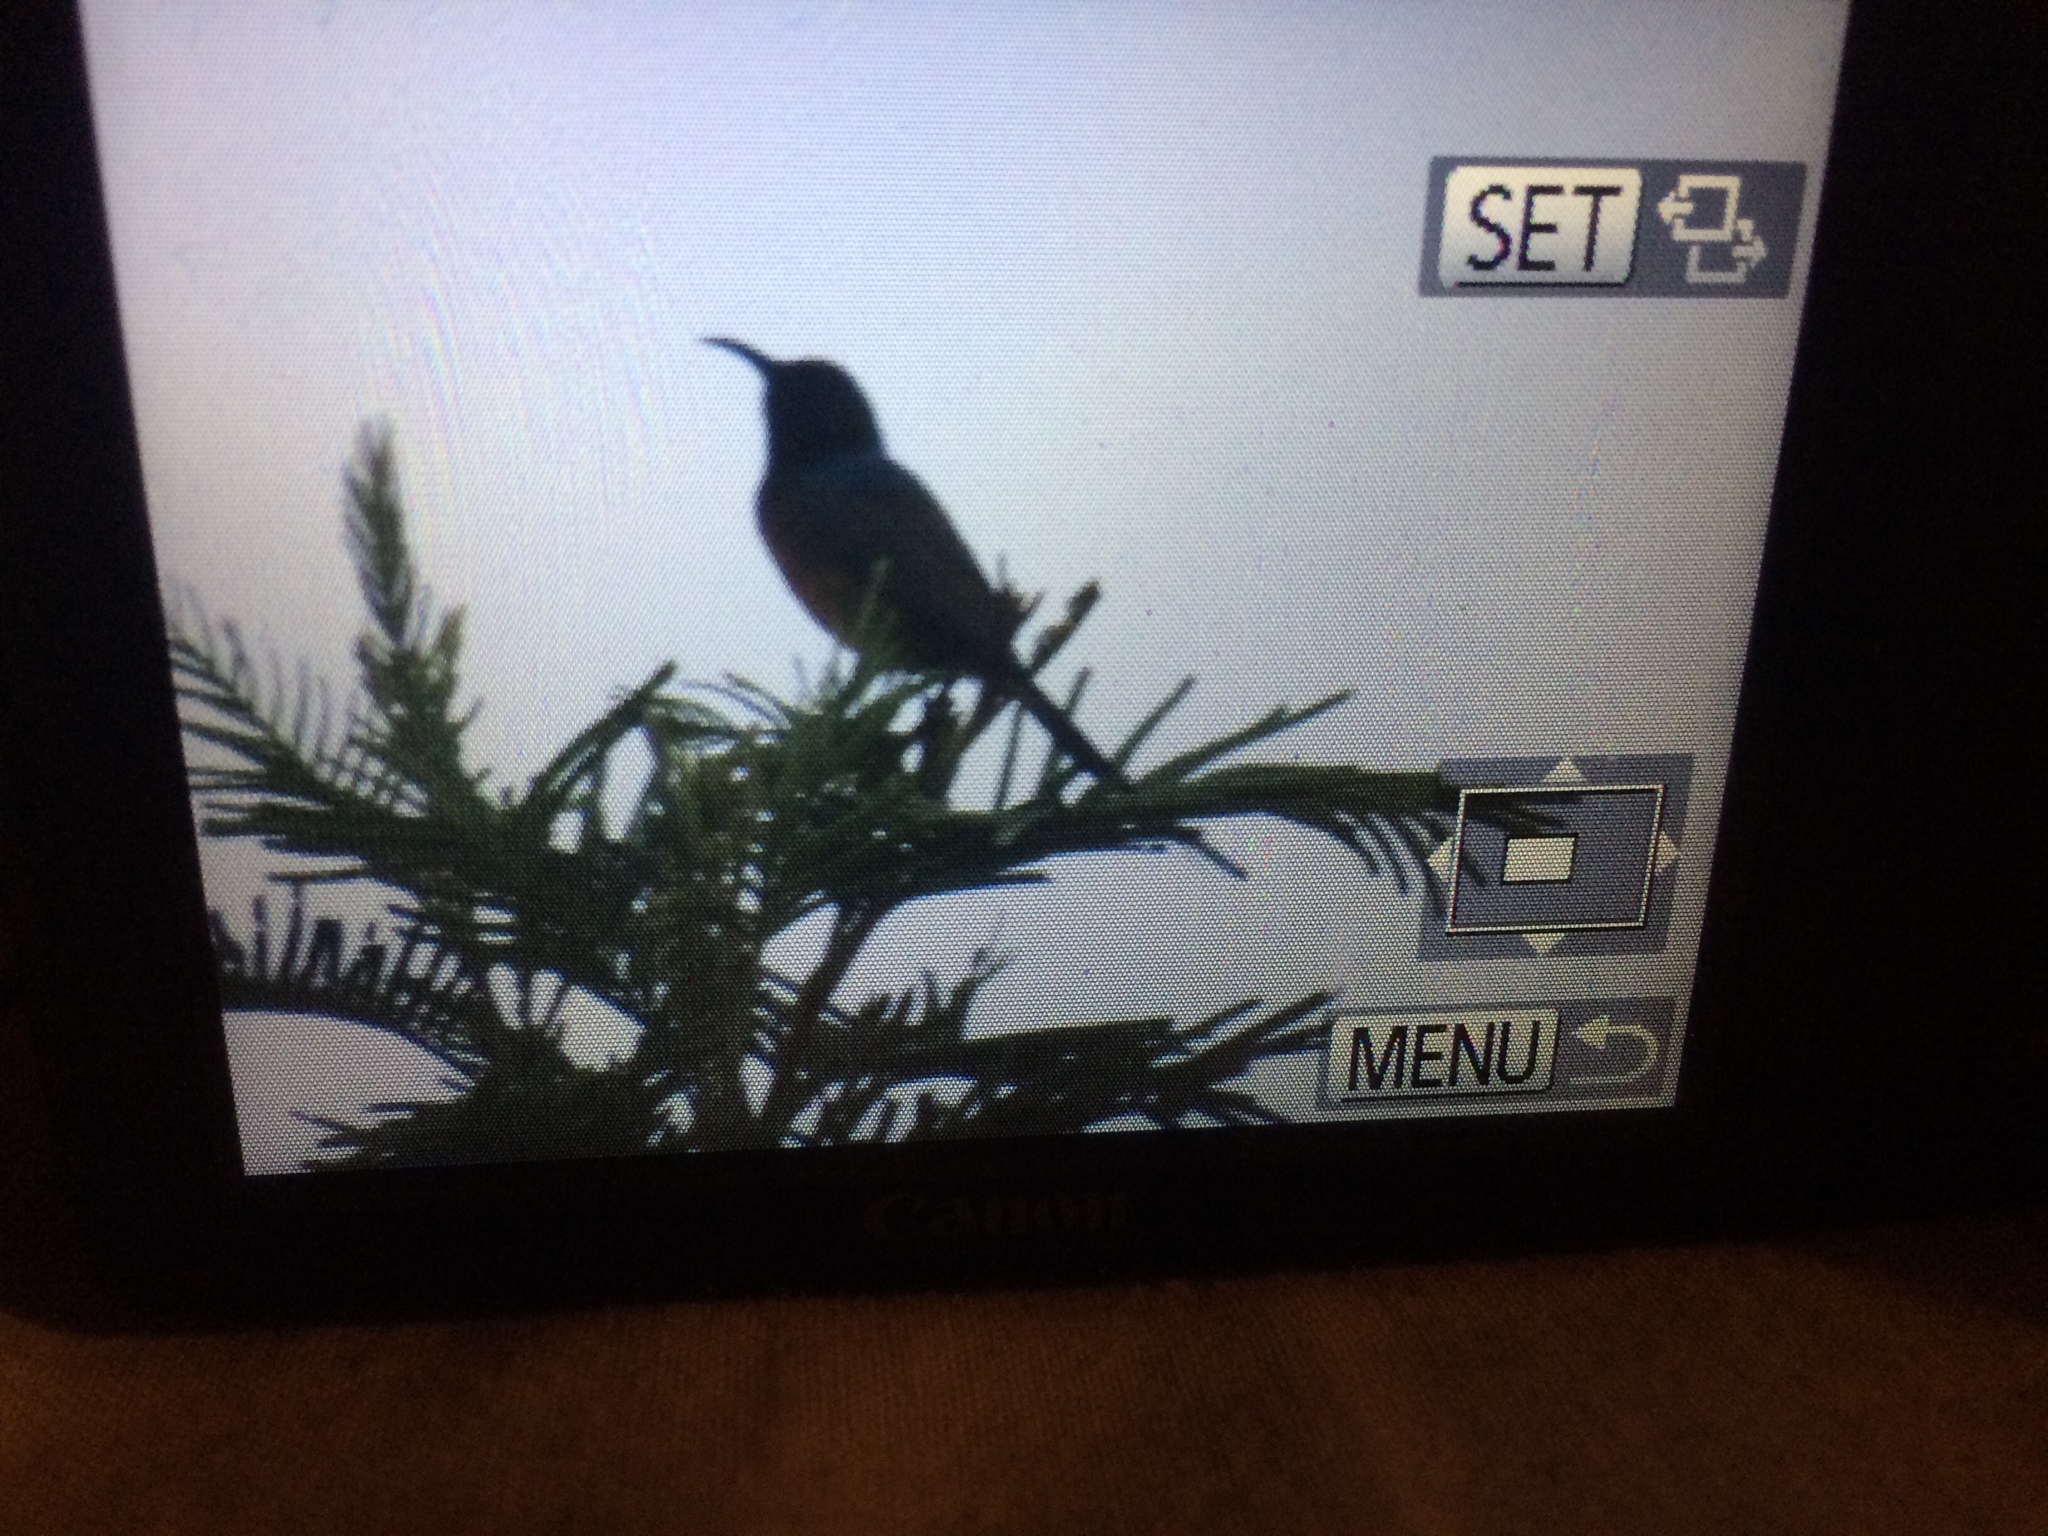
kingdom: Animalia
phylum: Chordata
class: Aves
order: Passeriformes
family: Nectariniidae
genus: Anthobaphes
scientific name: Anthobaphes violacea
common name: Orange-breasted sunbird
